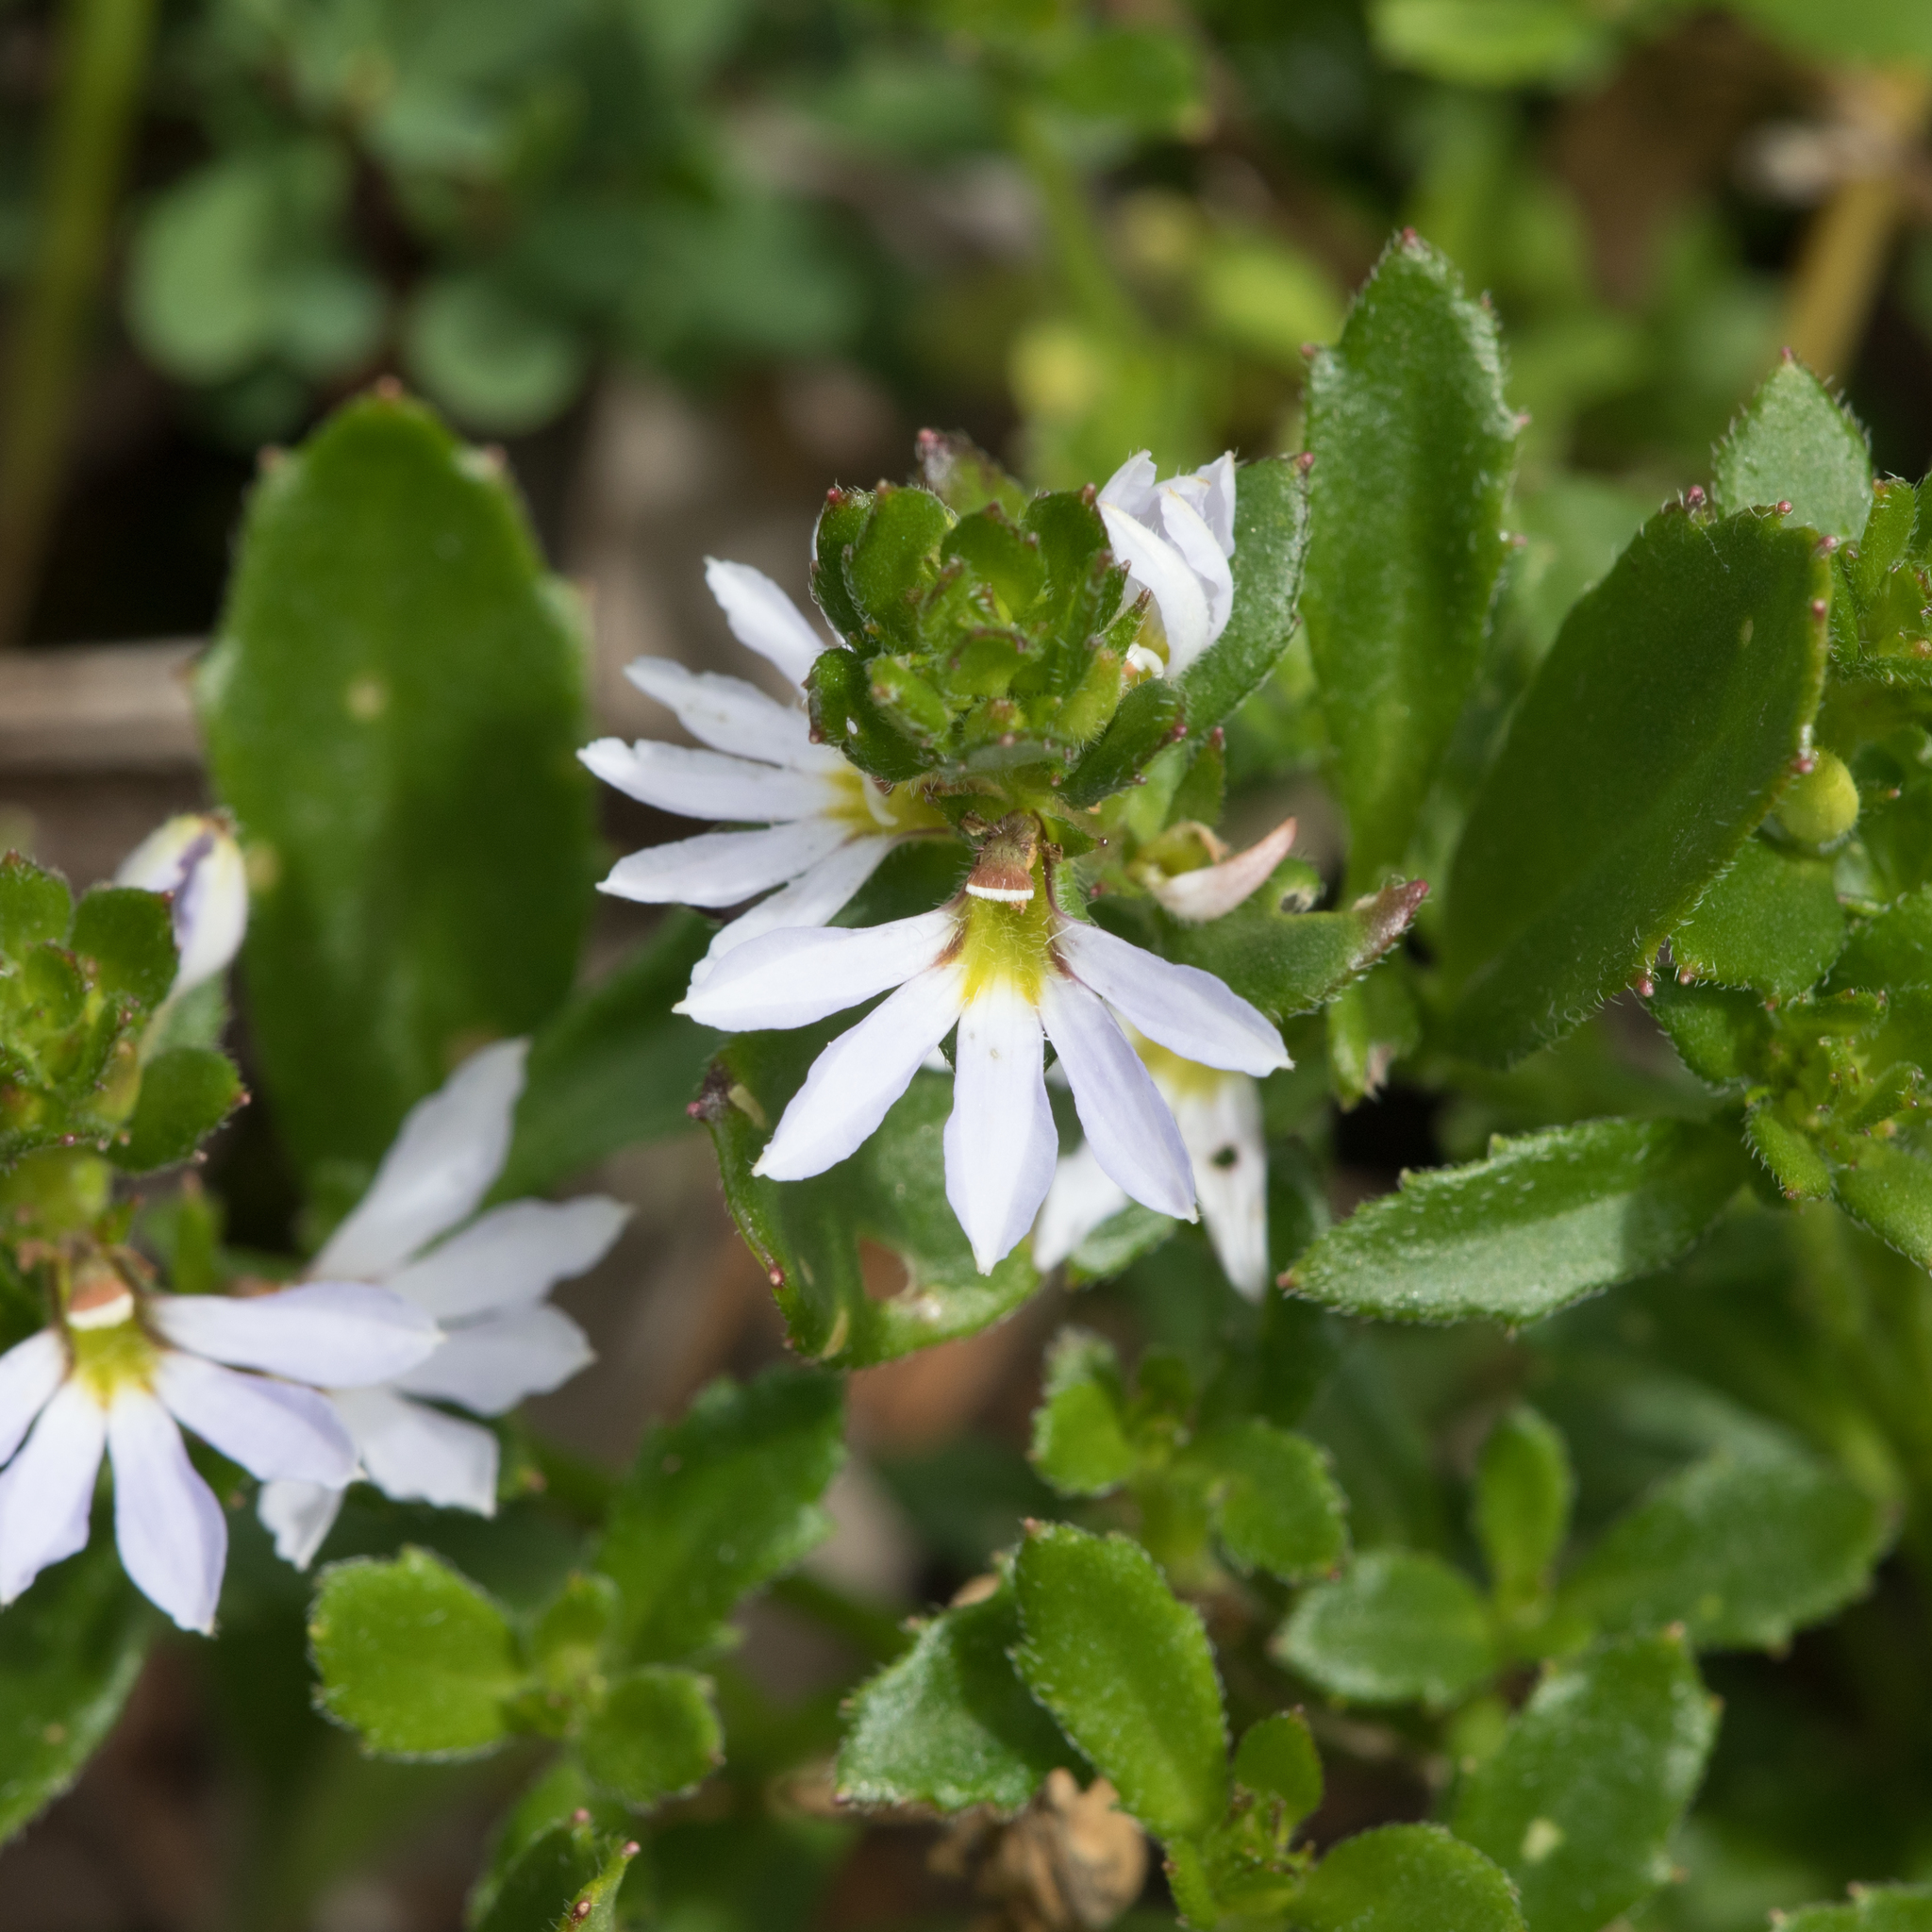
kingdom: Plantae
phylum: Tracheophyta
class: Magnoliopsida
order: Asterales
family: Goodeniaceae
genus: Scaevola
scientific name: Scaevola albida
